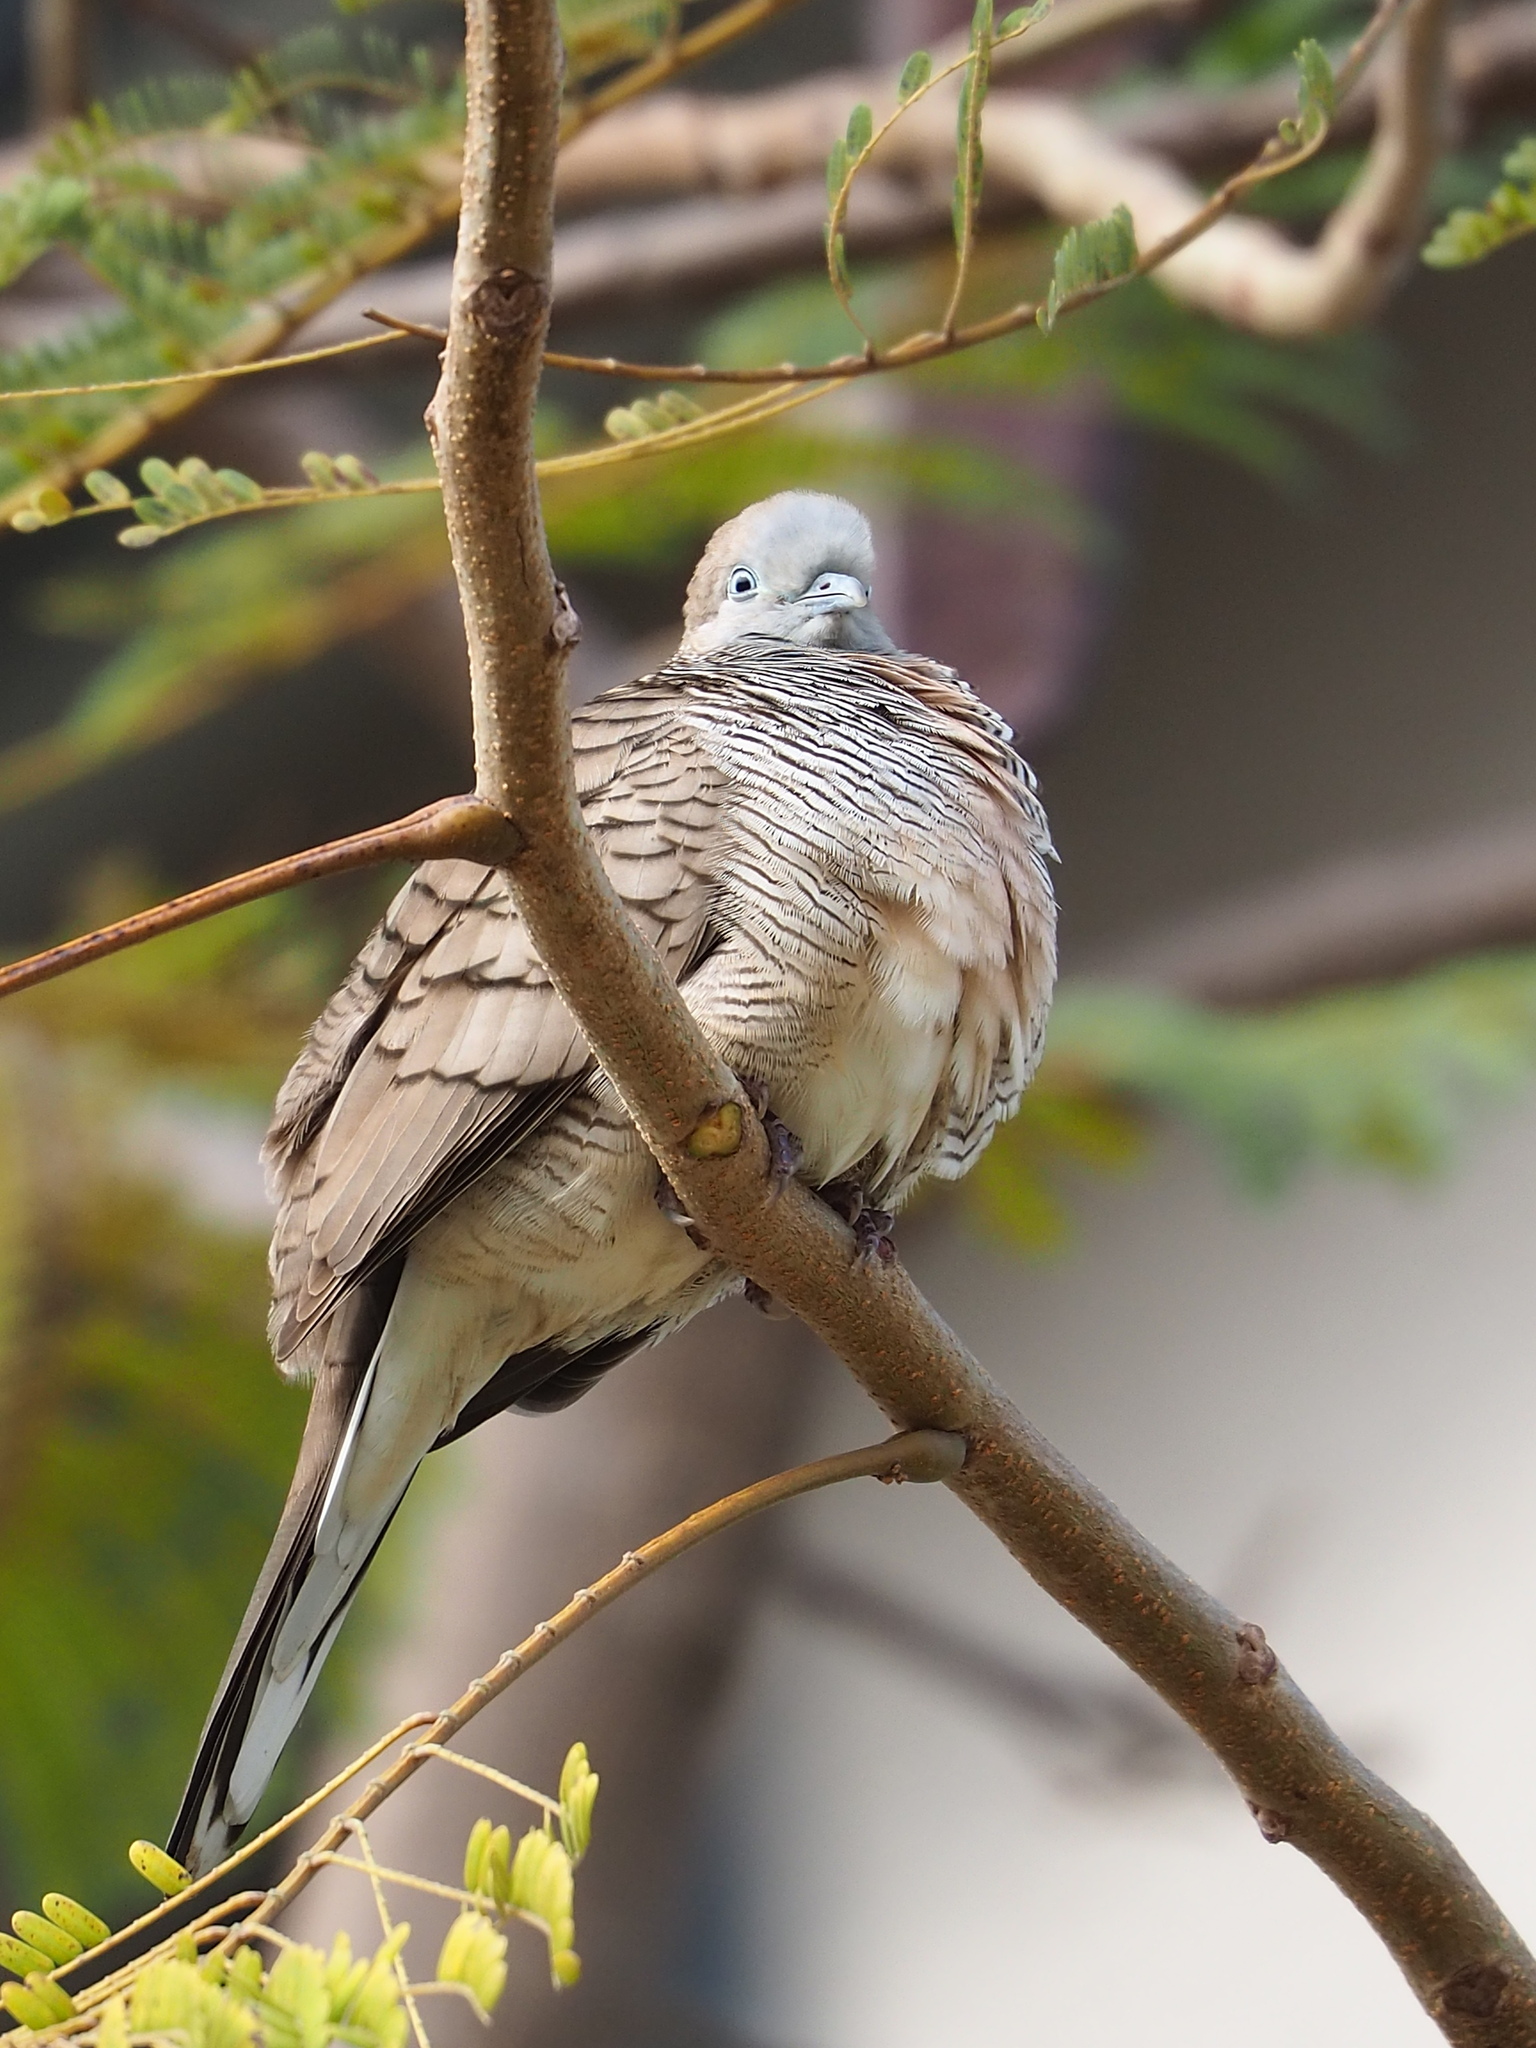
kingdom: Animalia
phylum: Chordata
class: Aves
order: Columbiformes
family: Columbidae
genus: Geopelia
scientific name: Geopelia striata
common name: Zebra dove
